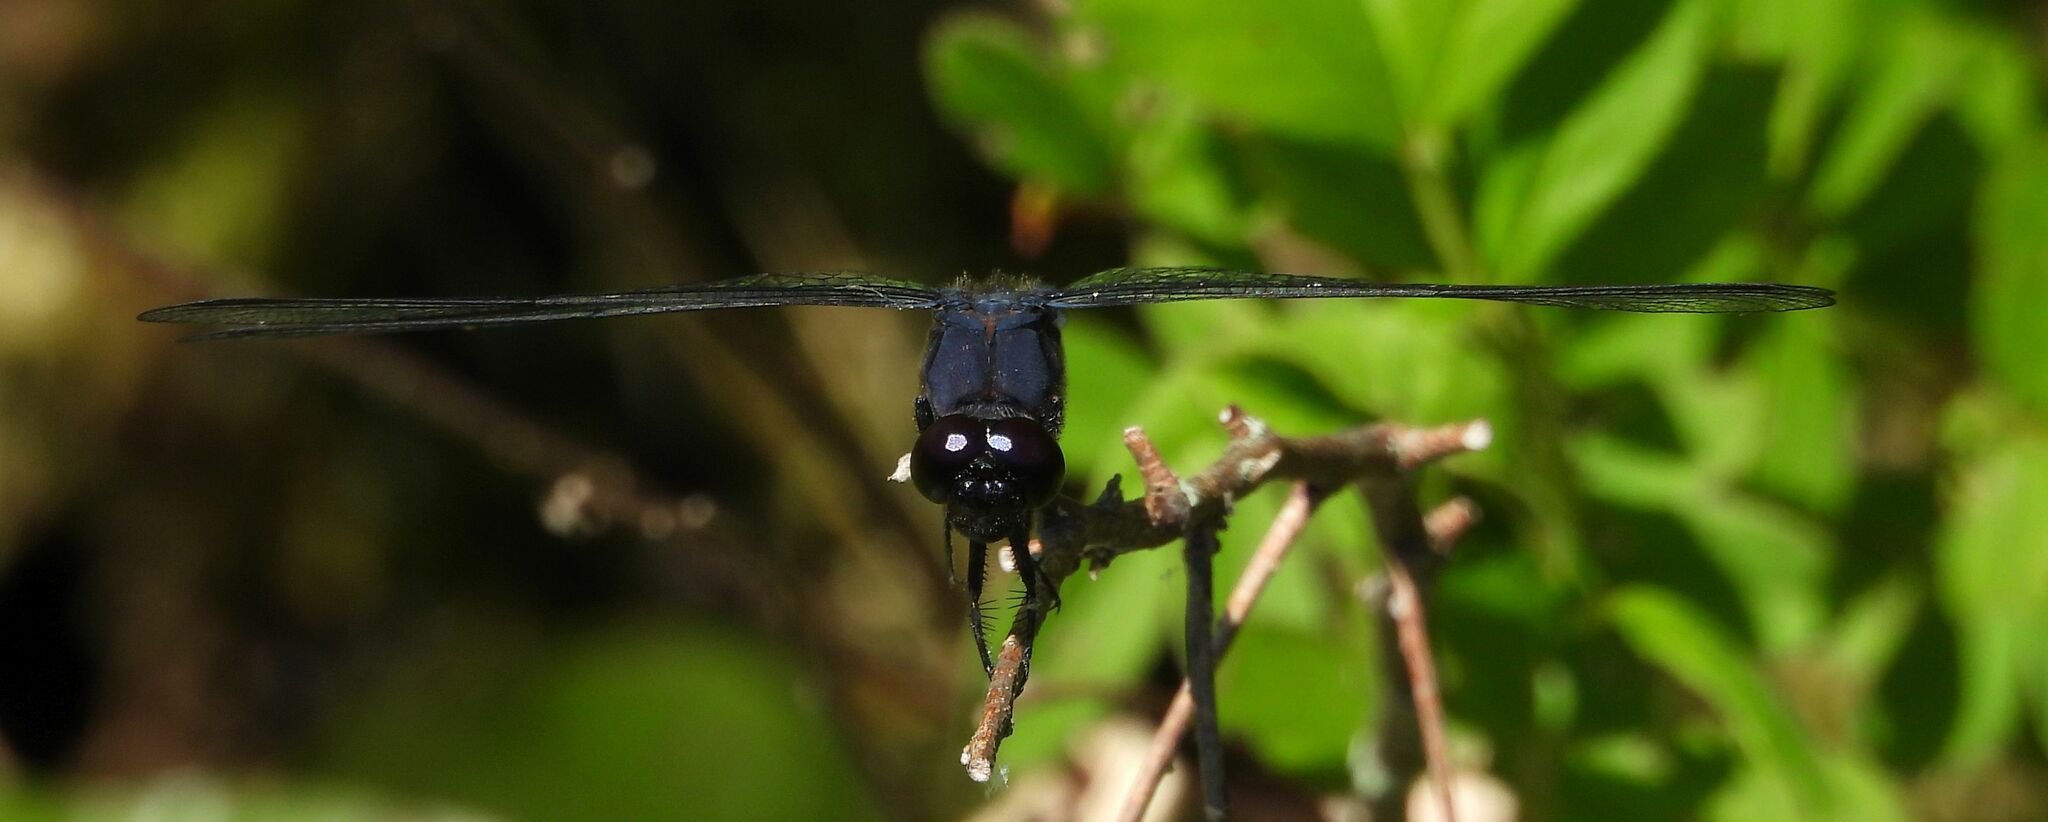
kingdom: Animalia
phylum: Arthropoda
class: Insecta
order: Odonata
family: Libellulidae
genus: Libellula
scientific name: Libellula incesta
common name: Slaty skimmer
